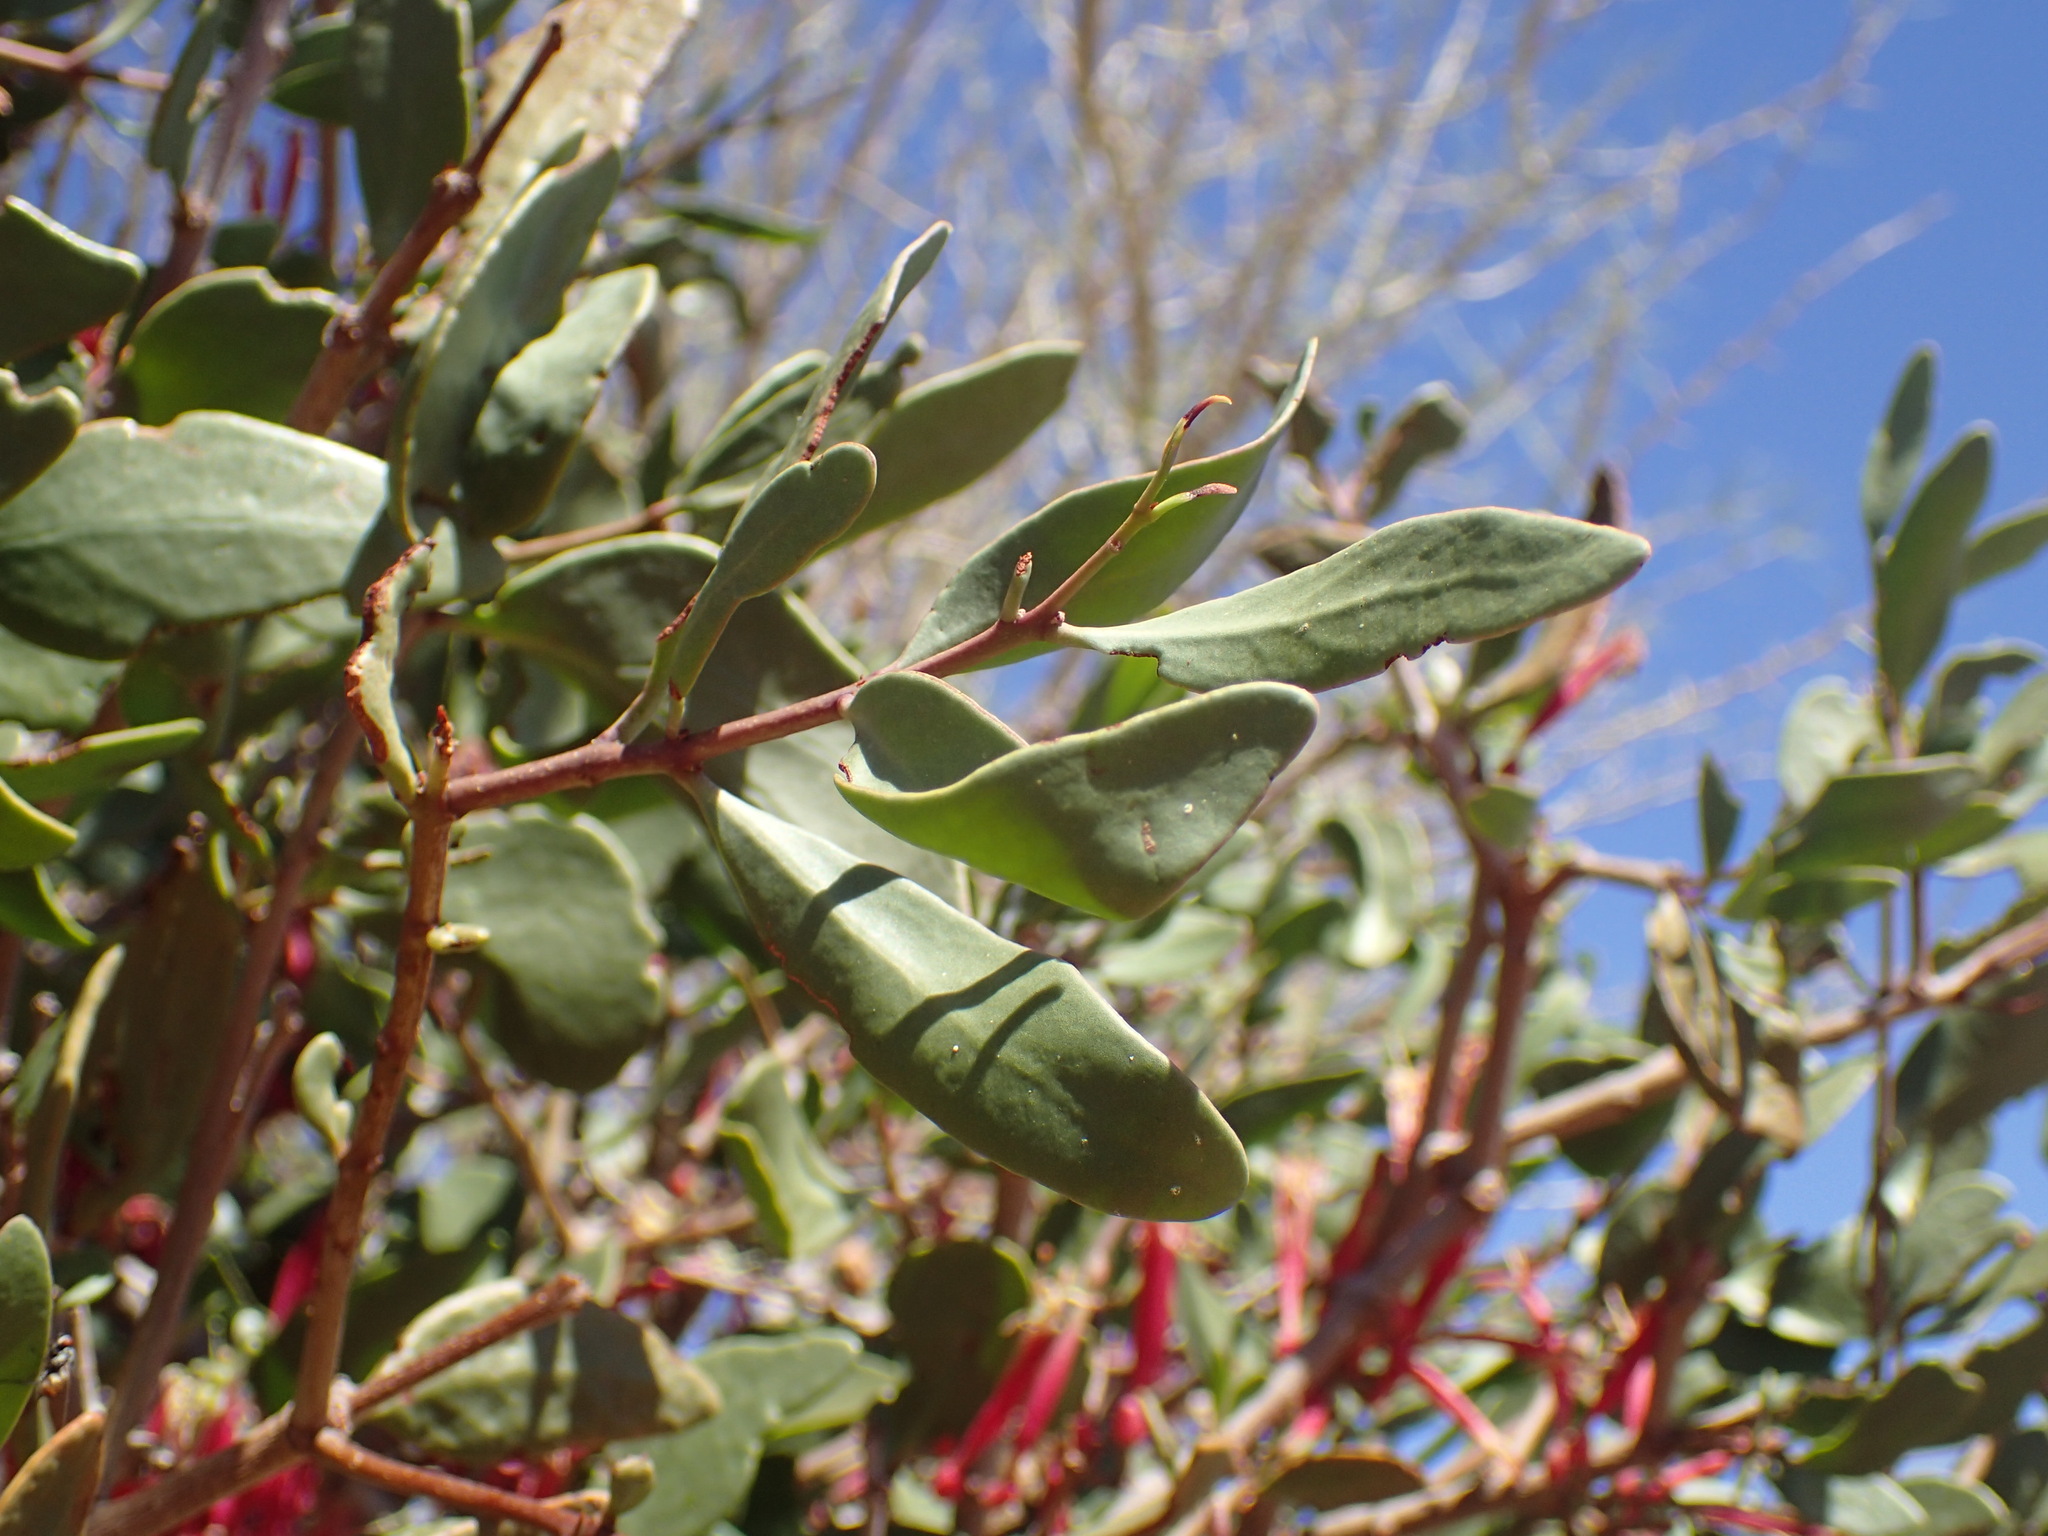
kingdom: Plantae
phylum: Tracheophyta
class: Magnoliopsida
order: Santalales
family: Loranthaceae
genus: Tapinanthus
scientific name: Tapinanthus oleifolius
